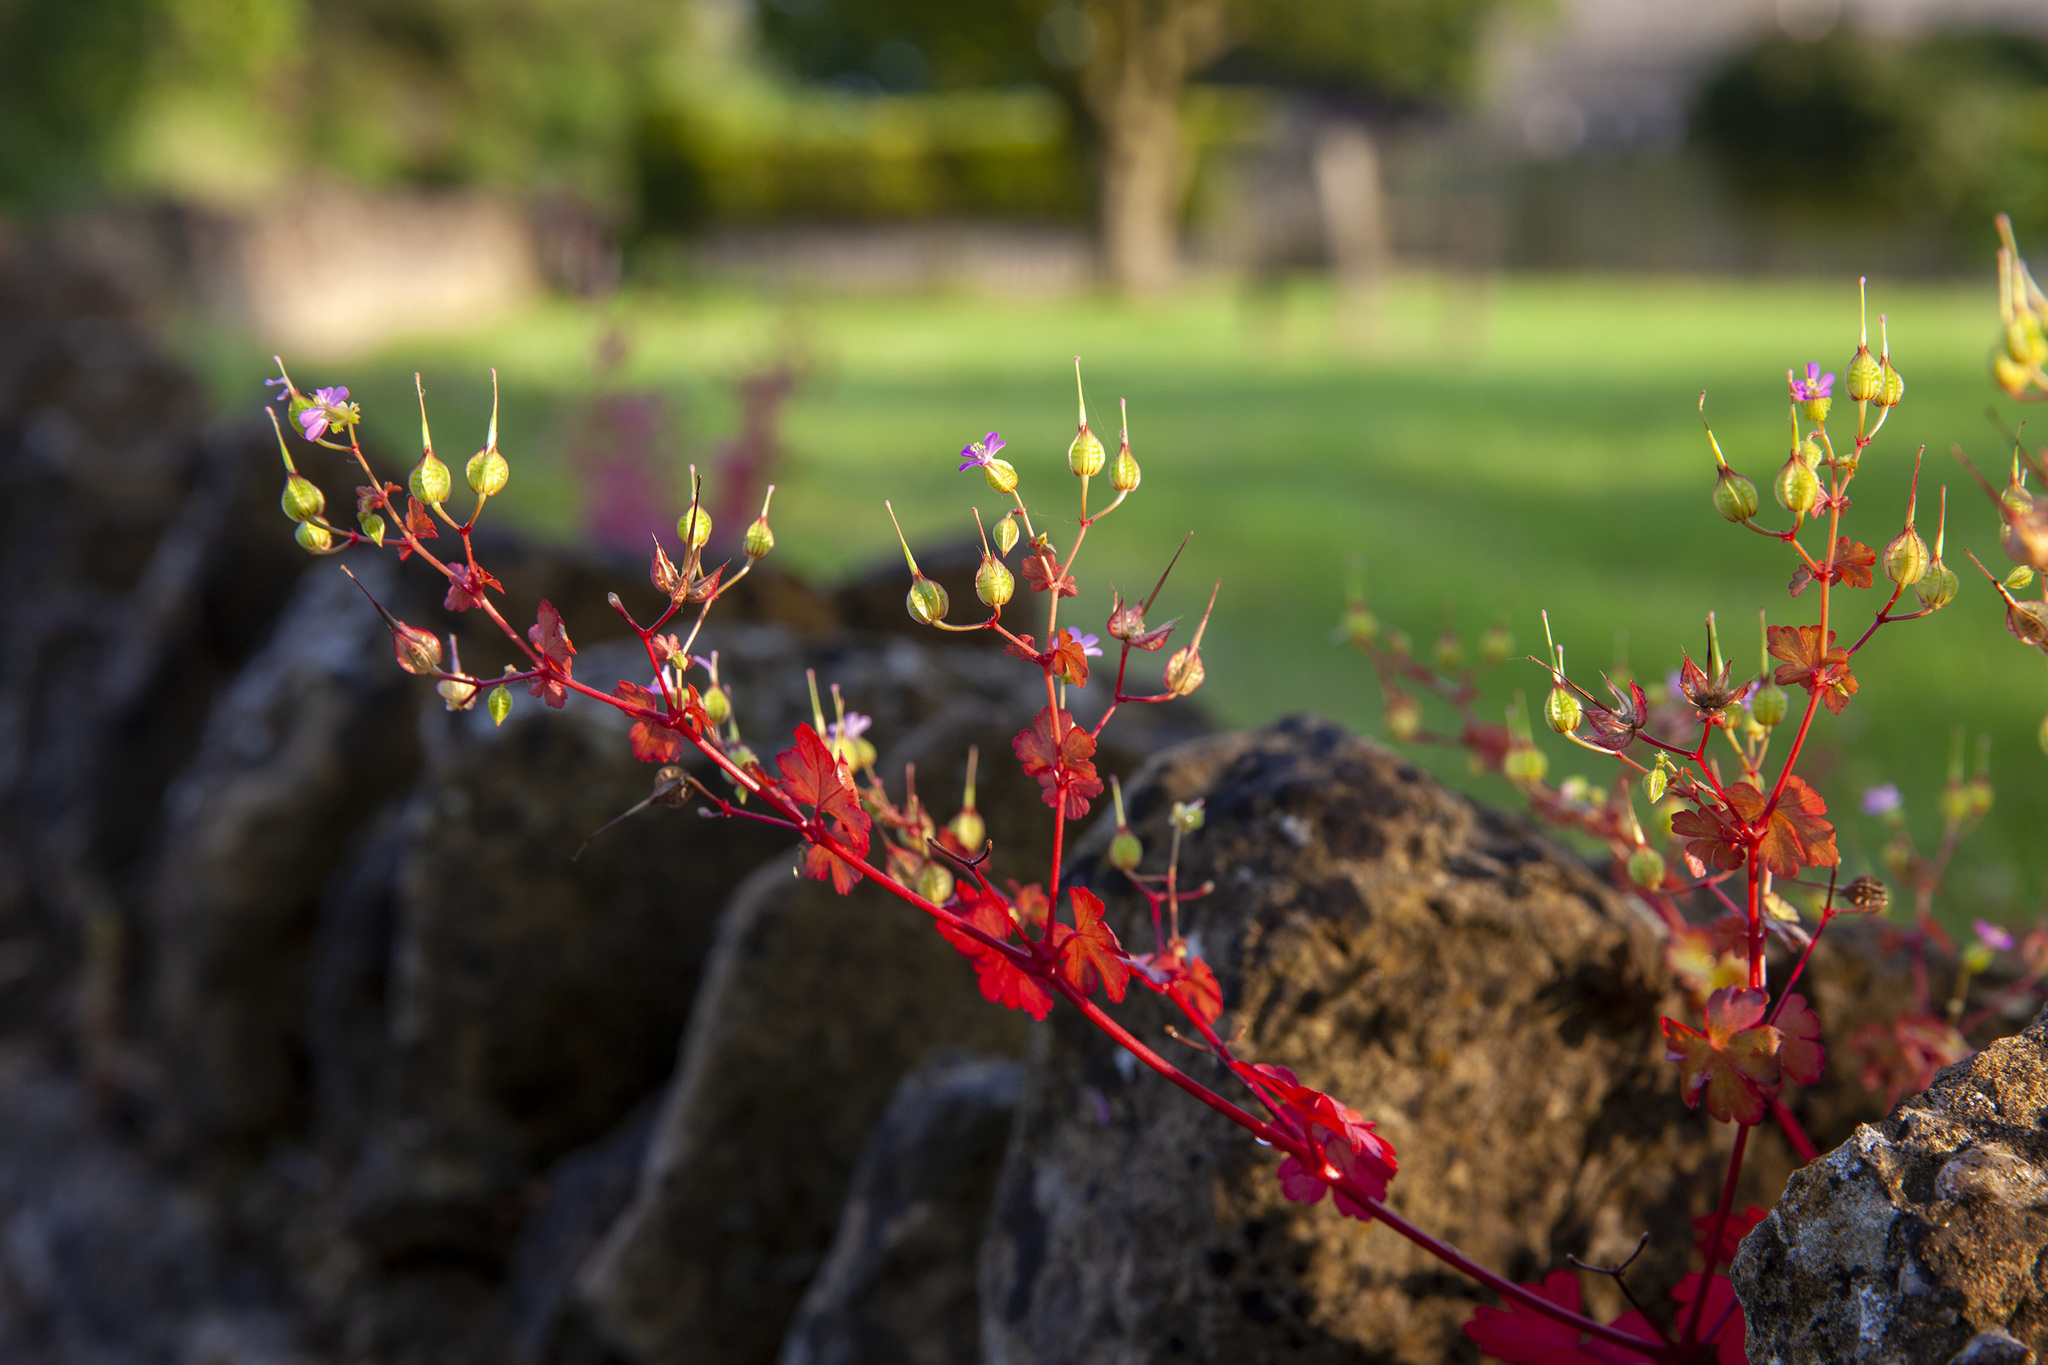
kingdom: Plantae
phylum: Tracheophyta
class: Magnoliopsida
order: Geraniales
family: Geraniaceae
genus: Geranium
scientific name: Geranium lucidum
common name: Shining crane's-bill
